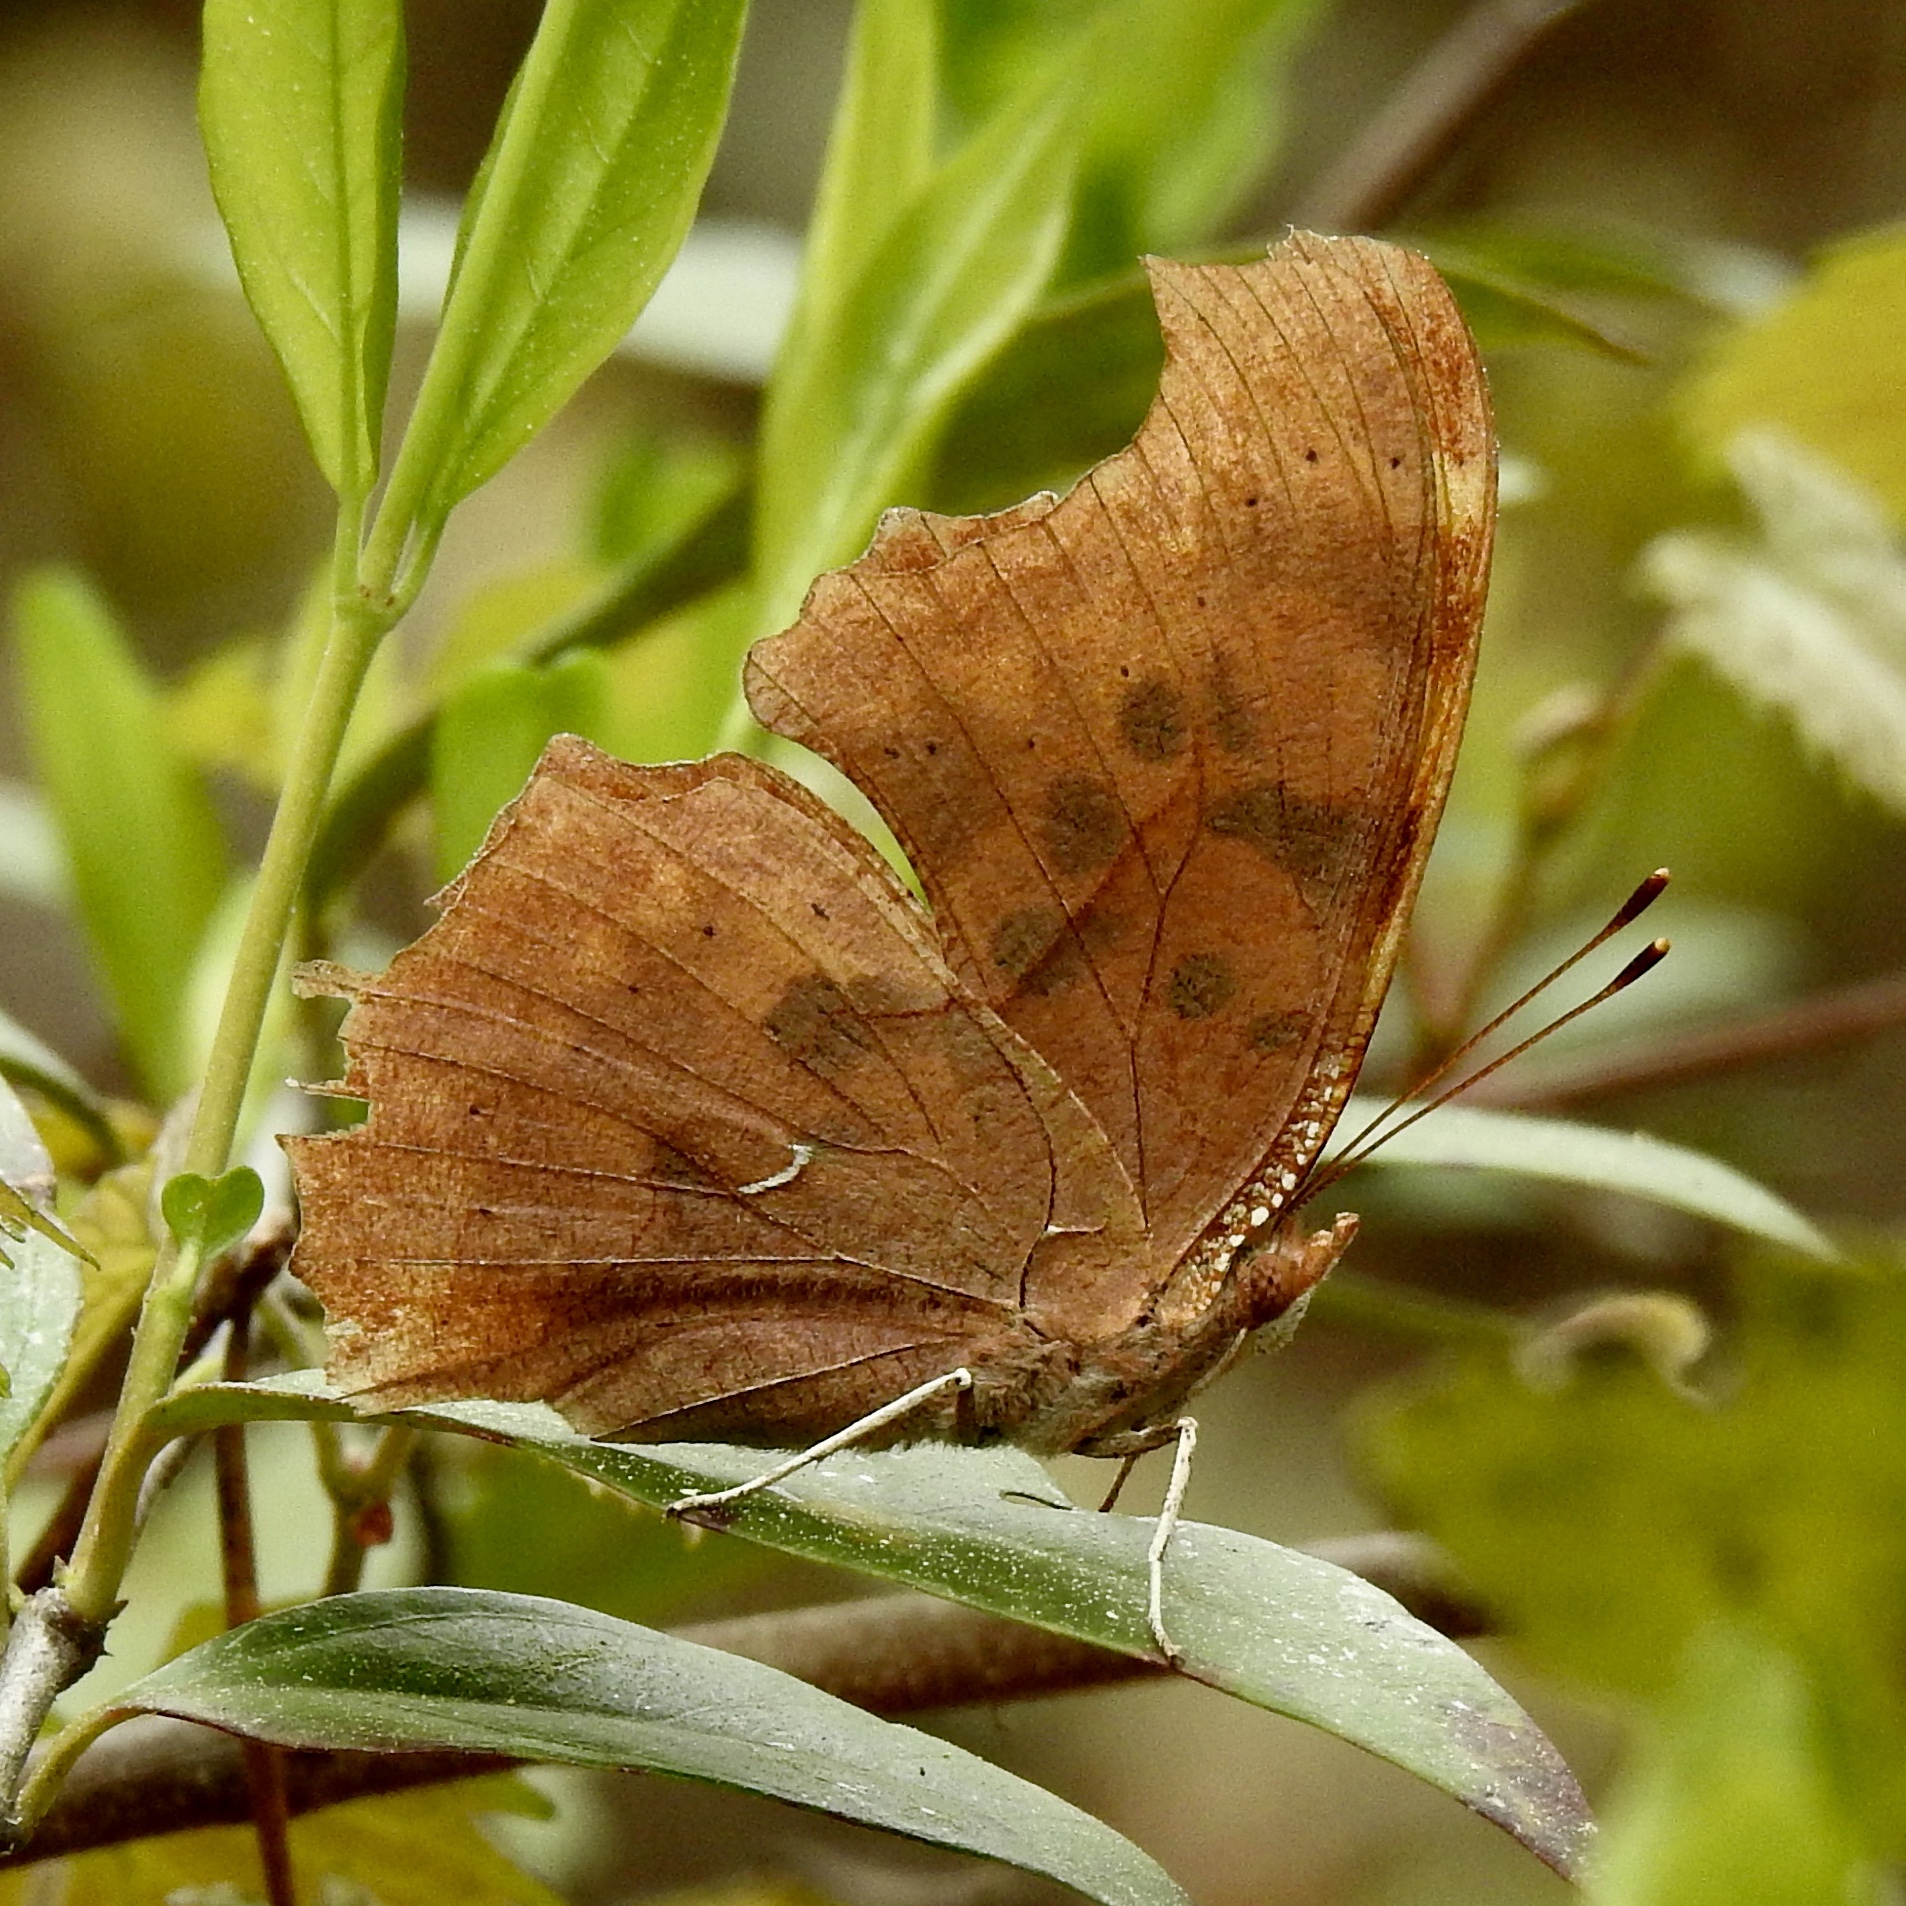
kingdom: Animalia
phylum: Arthropoda
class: Insecta
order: Lepidoptera
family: Nymphalidae
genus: Polygonia
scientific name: Polygonia interrogationis
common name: Question mark
